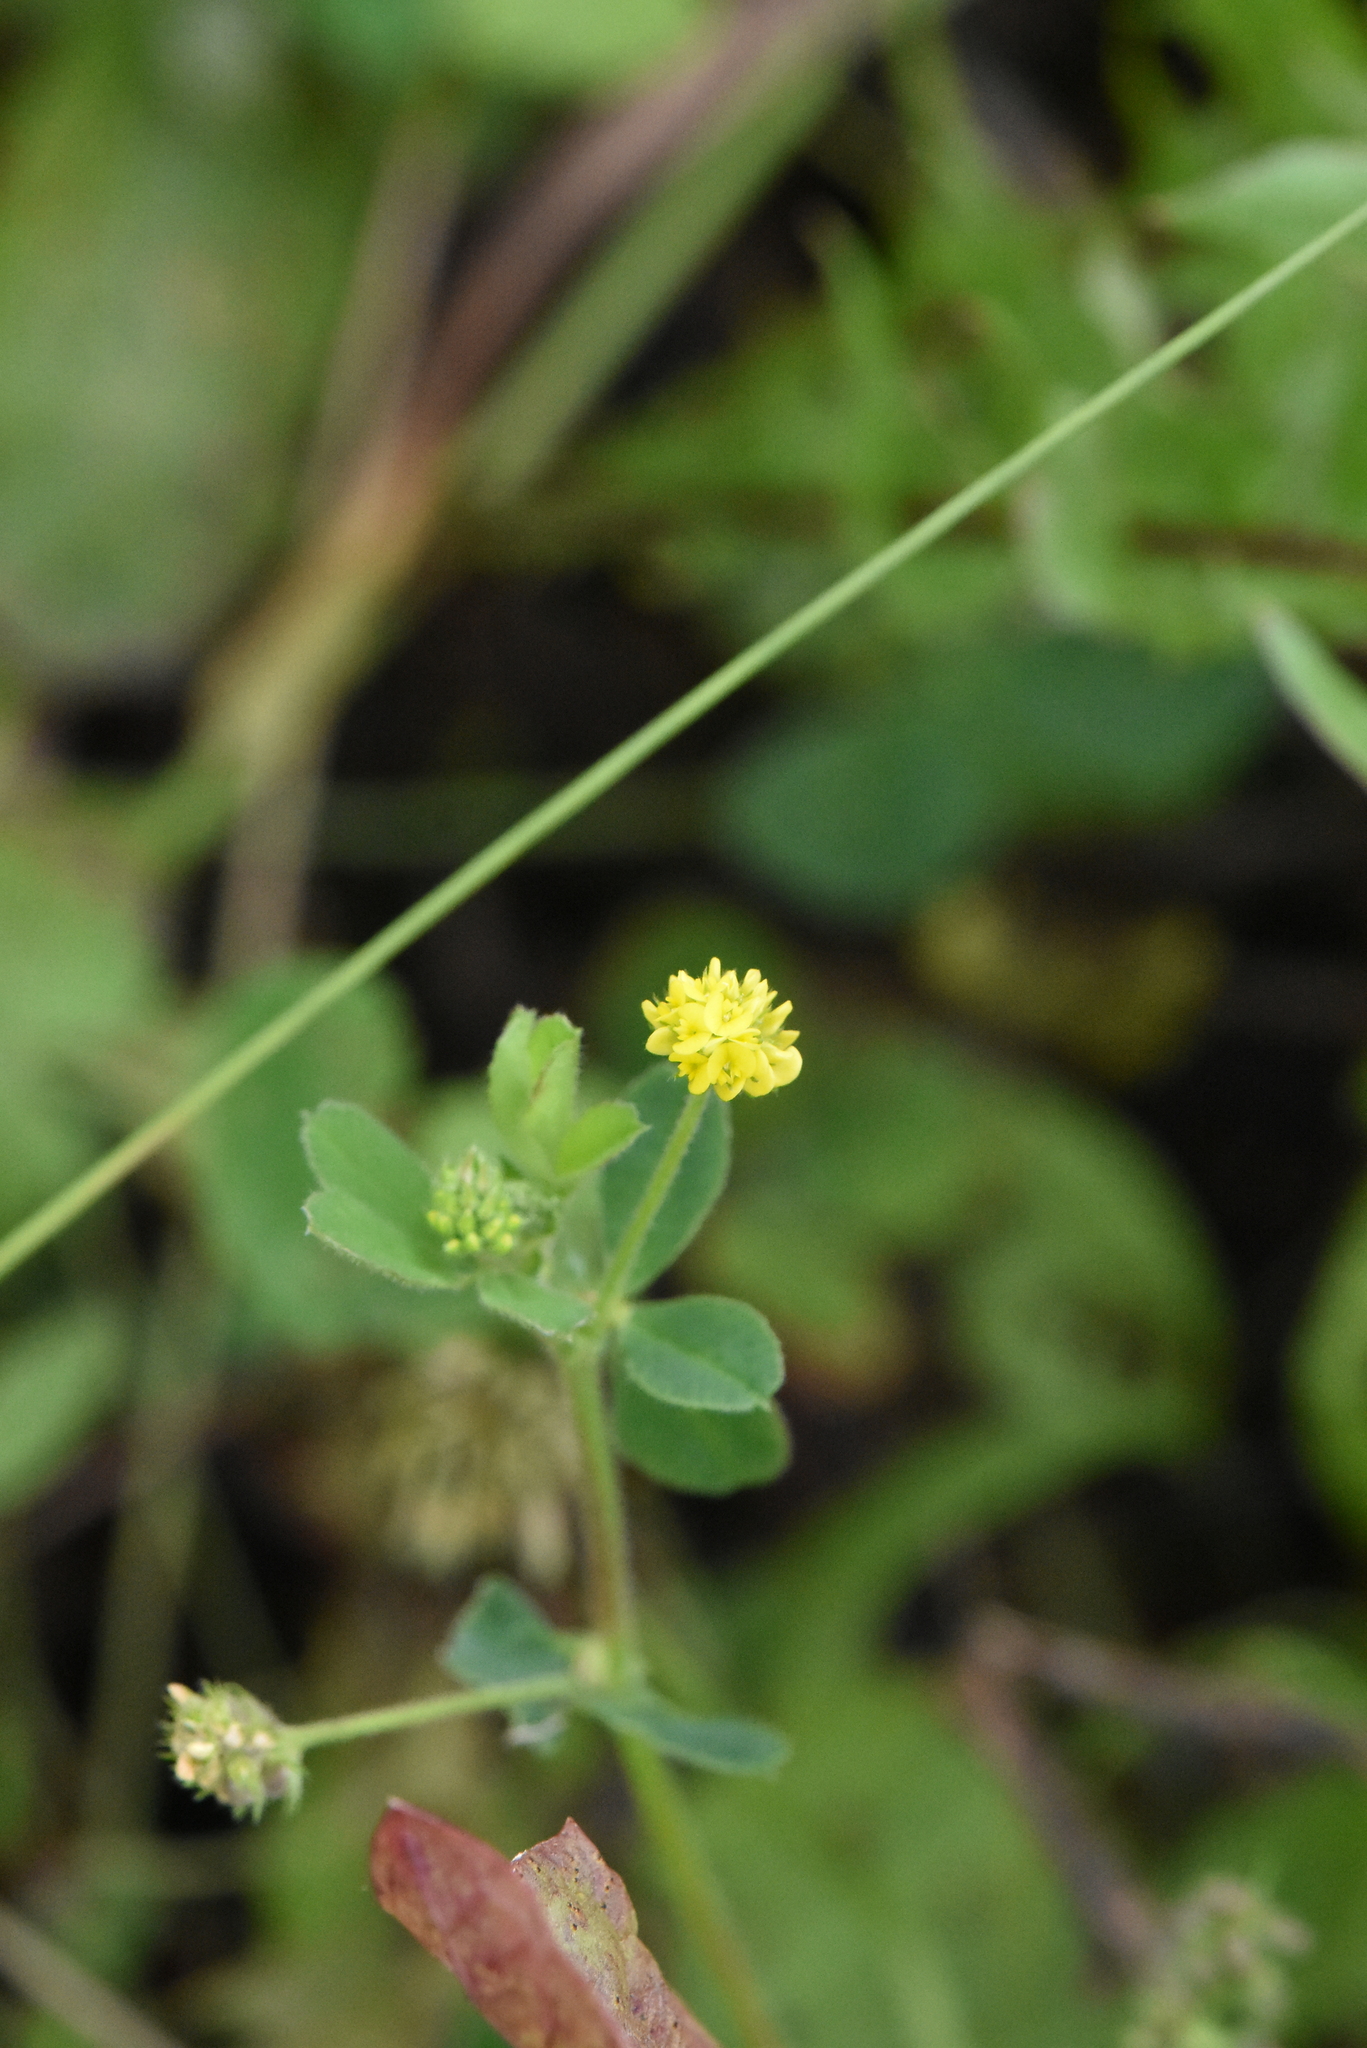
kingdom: Plantae
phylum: Tracheophyta
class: Magnoliopsida
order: Fabales
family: Fabaceae
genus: Medicago
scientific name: Medicago lupulina
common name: Black medick
